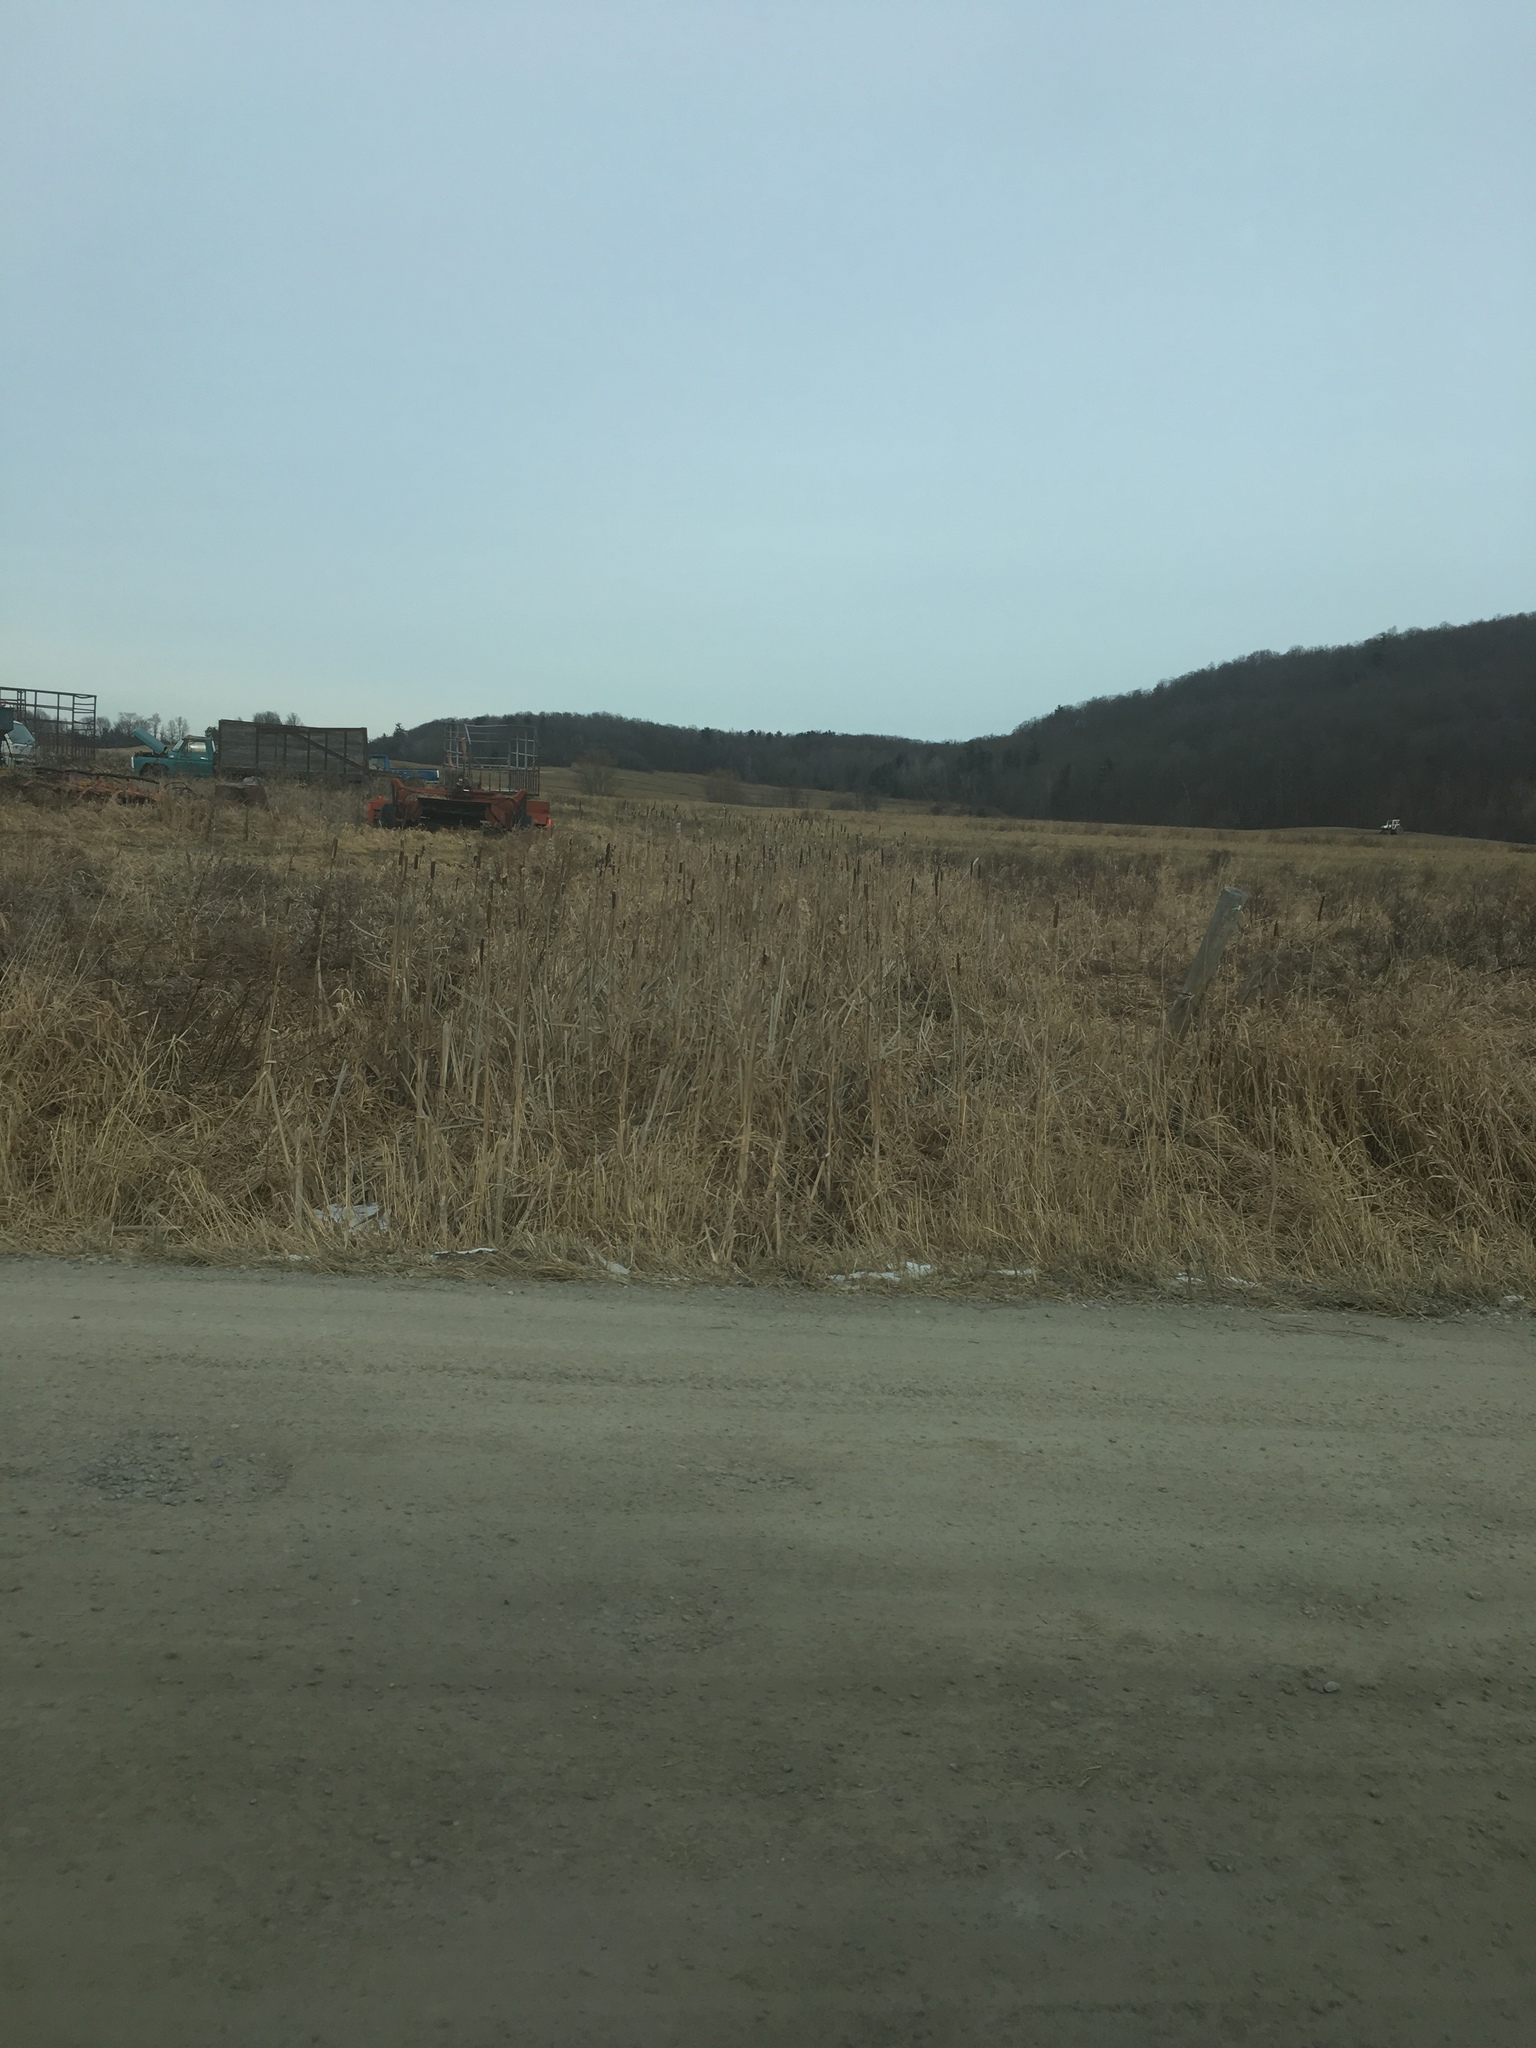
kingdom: Plantae
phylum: Tracheophyta
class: Liliopsida
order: Poales
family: Typhaceae
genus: Typha
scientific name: Typha
